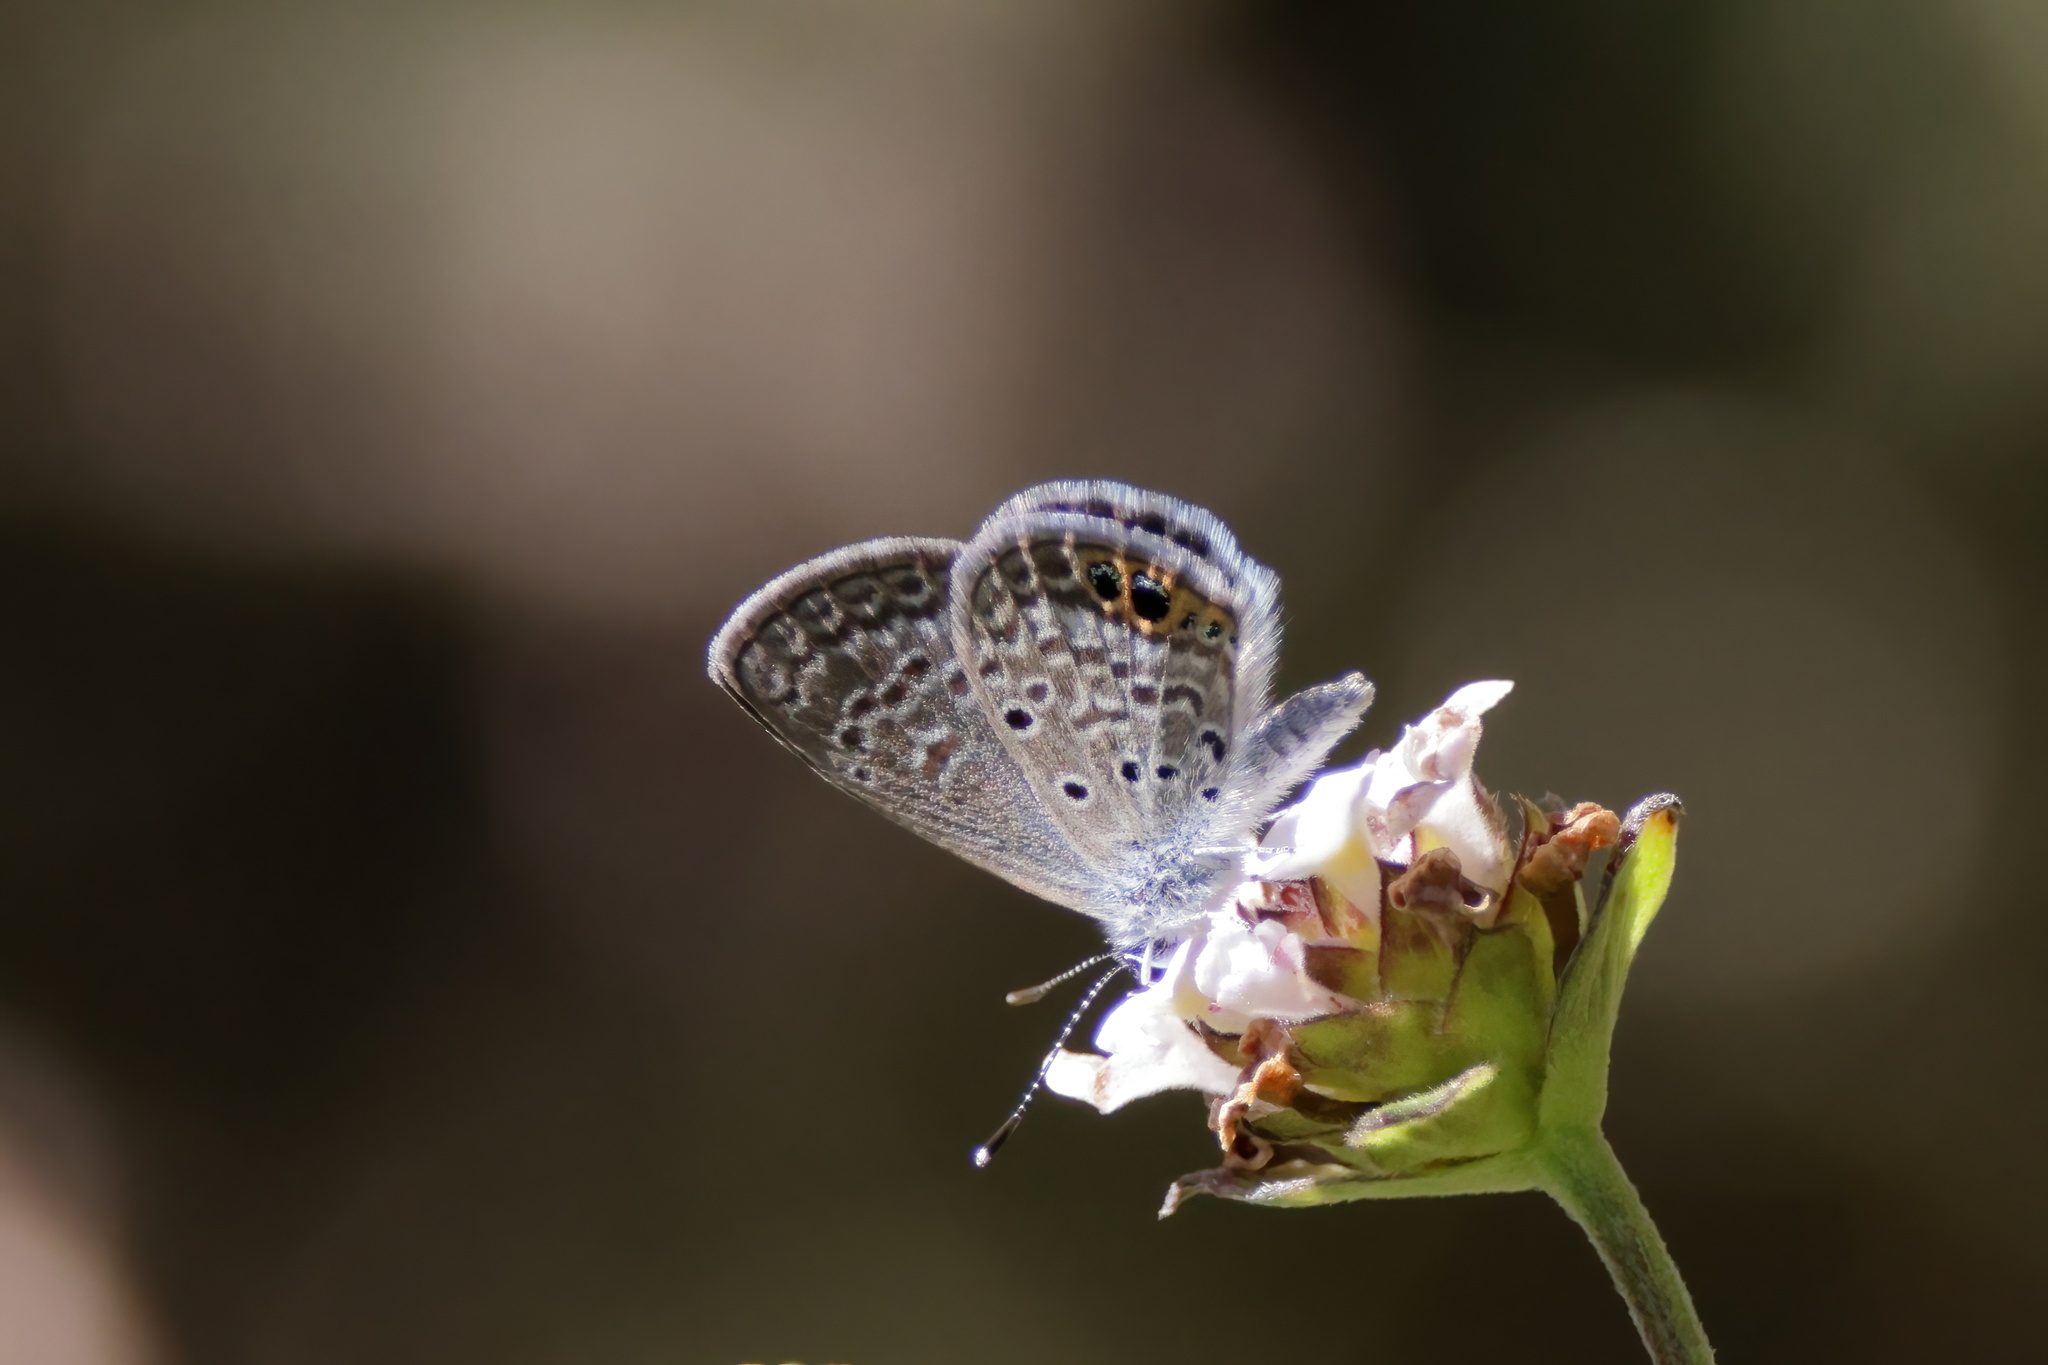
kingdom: Animalia
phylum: Arthropoda
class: Insecta
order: Lepidoptera
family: Lycaenidae
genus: Hemiargus
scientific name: Hemiargus ceraunus
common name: Ceraunus blue
